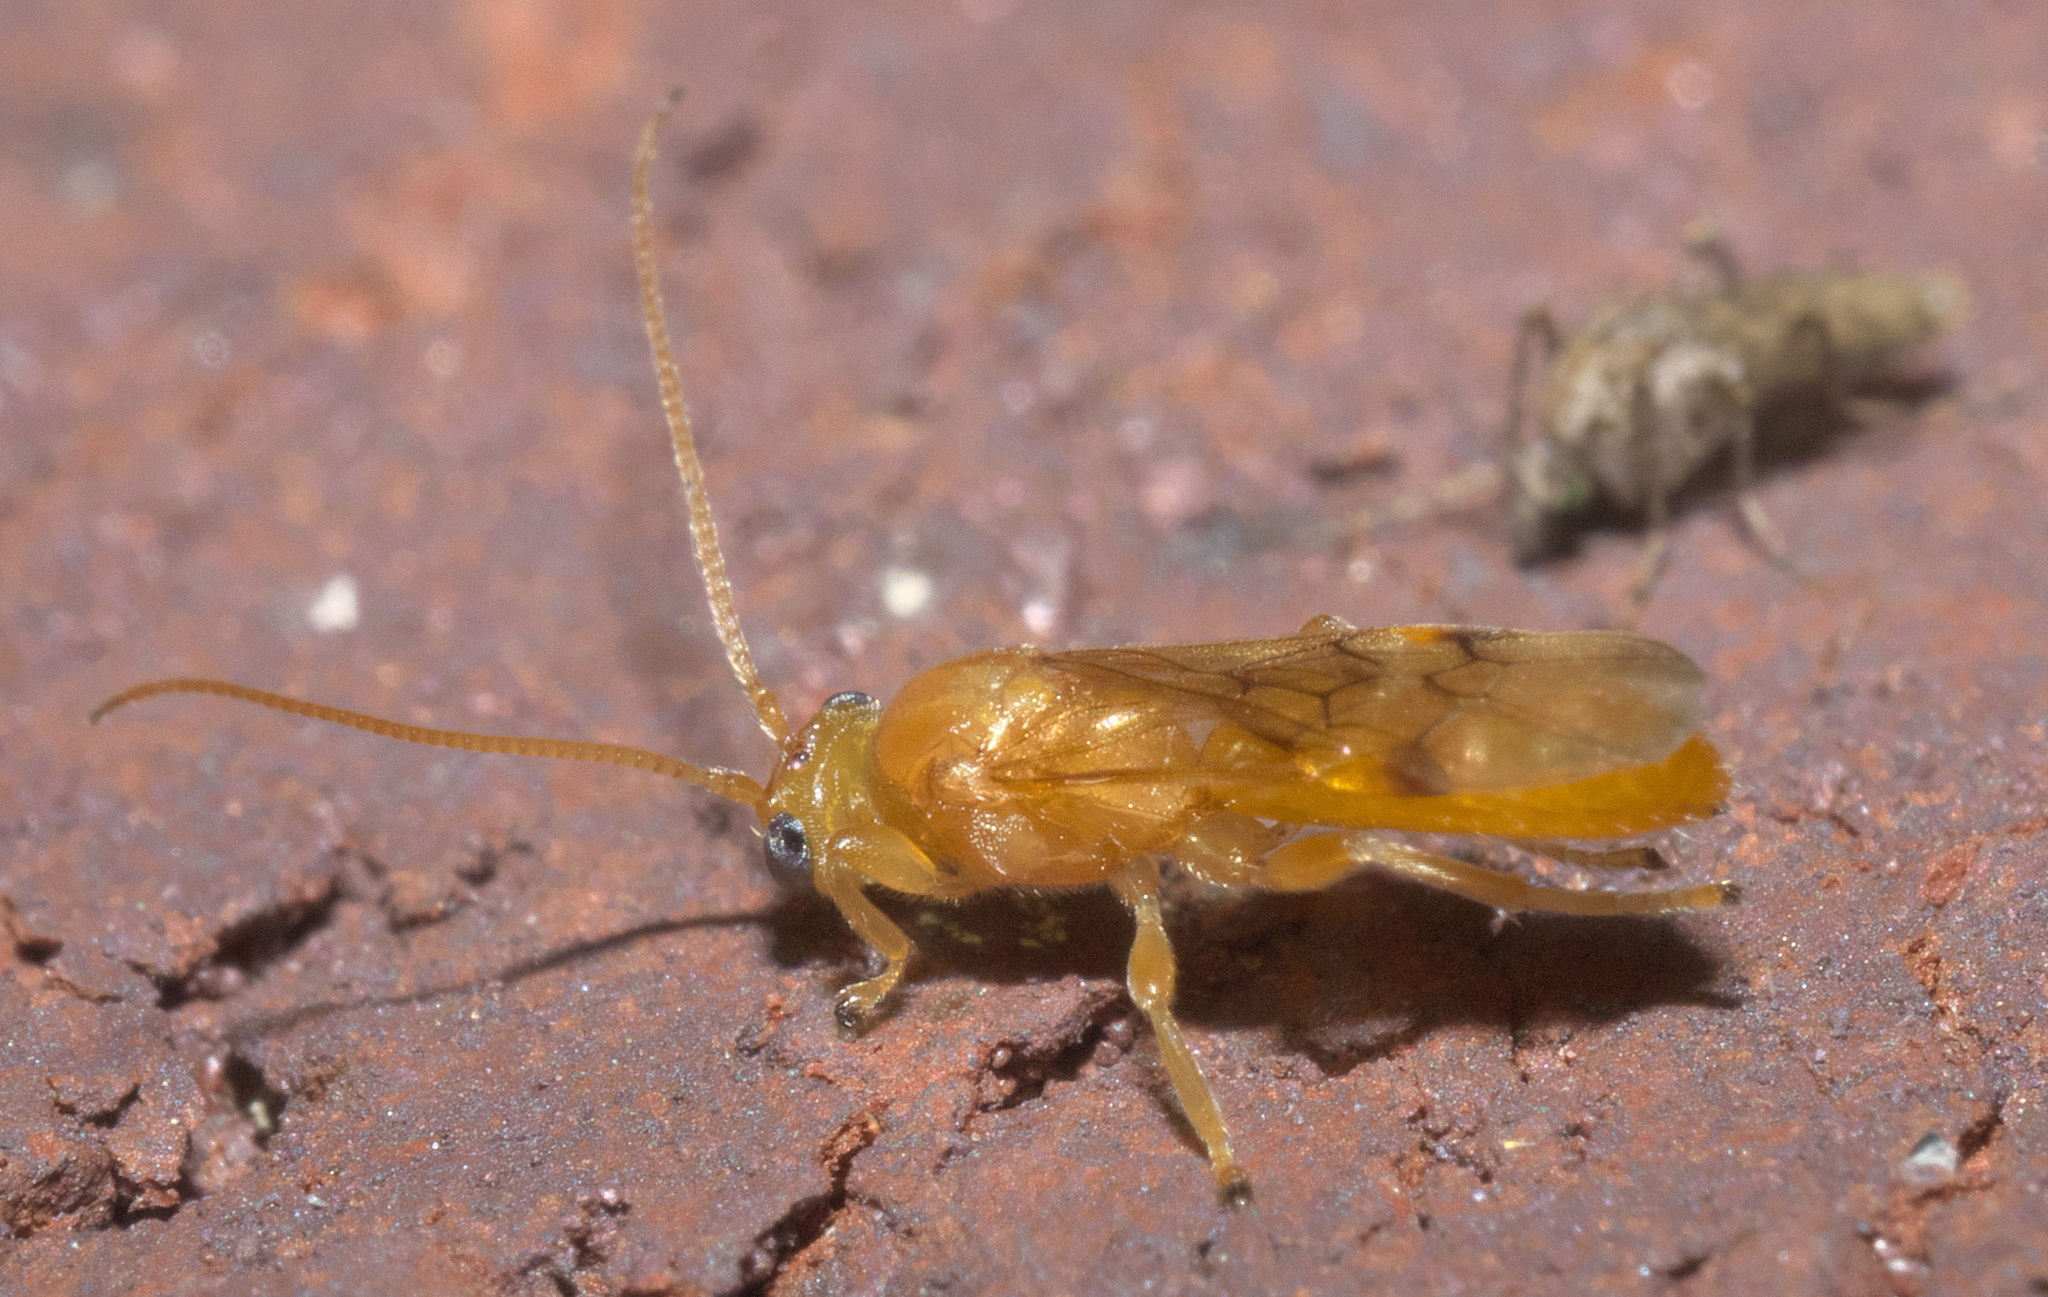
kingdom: Animalia
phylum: Arthropoda
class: Insecta
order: Hymenoptera
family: Braconidae
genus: Yelicones
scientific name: Yelicones delicatus
